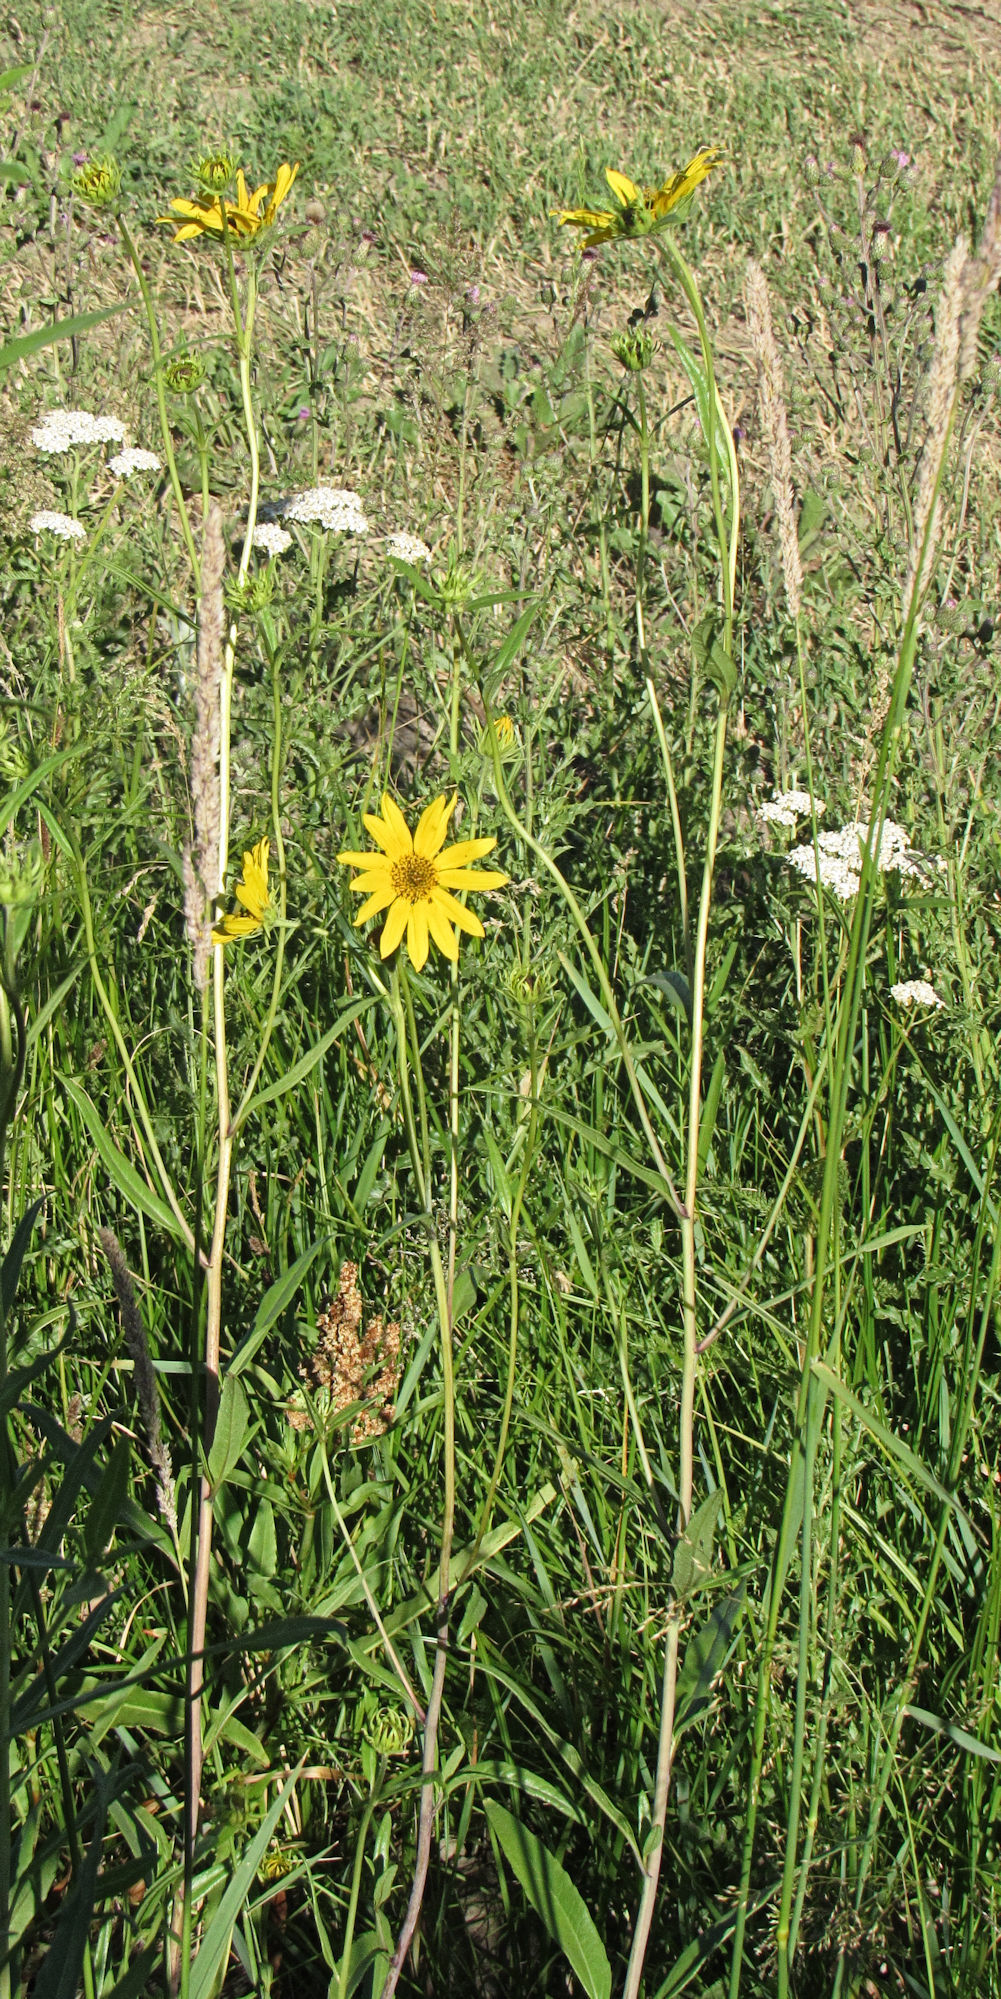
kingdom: Plantae
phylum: Tracheophyta
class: Magnoliopsida
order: Asterales
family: Asteraceae
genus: Helianthus
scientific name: Helianthus nuttallii
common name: Nuttall's sunflower
